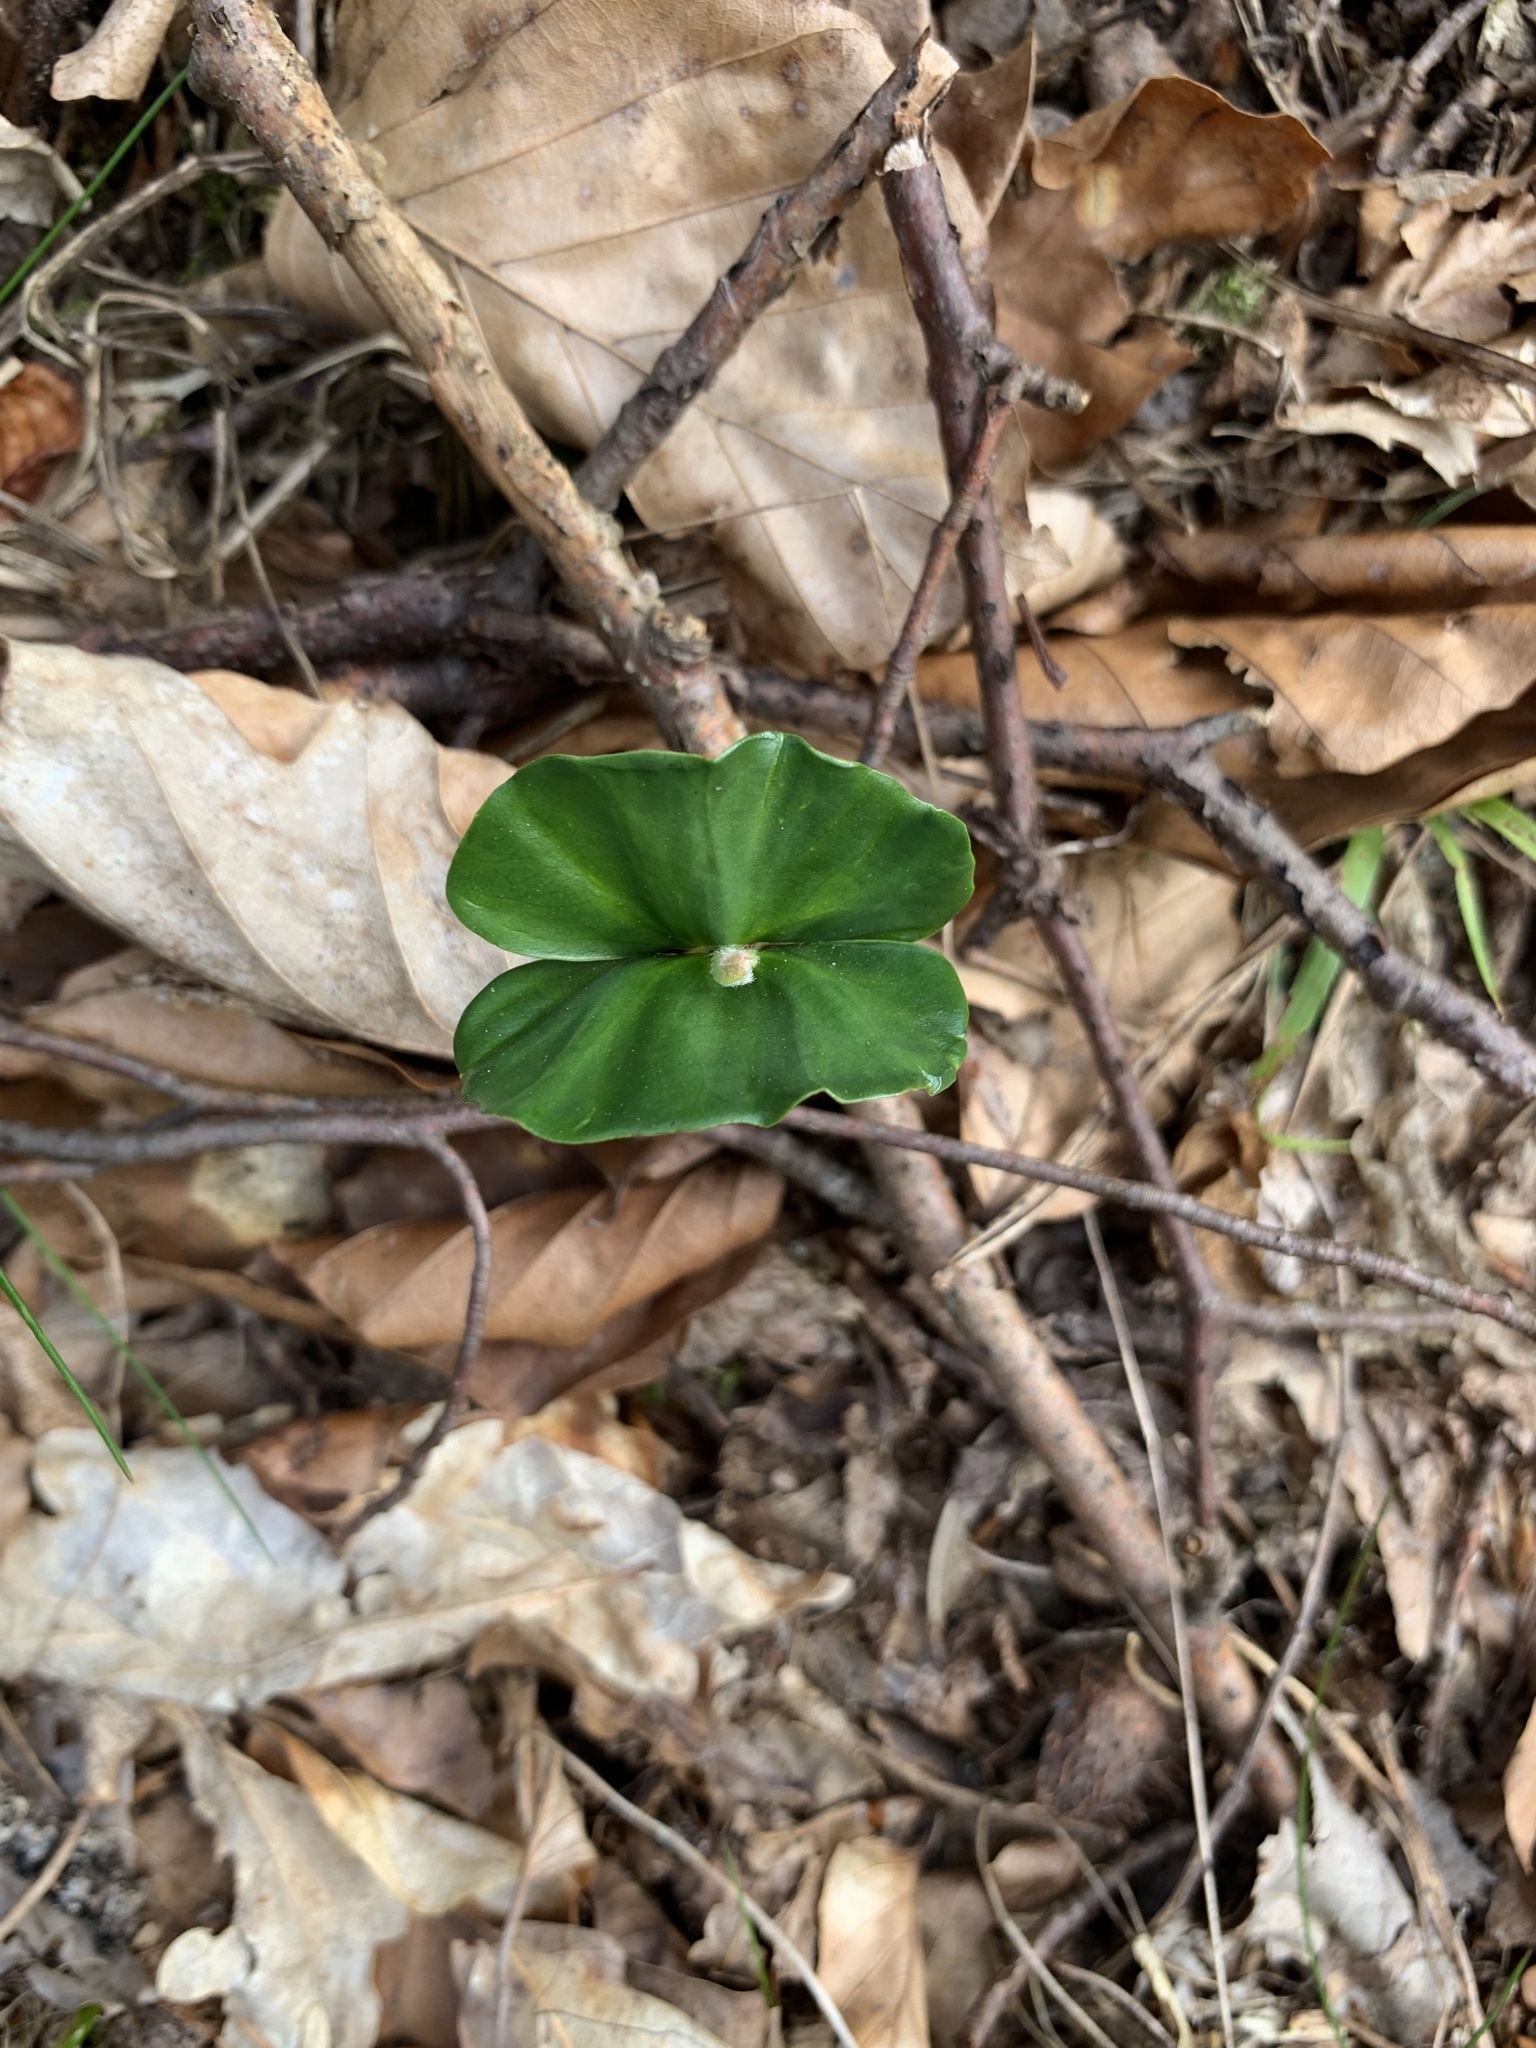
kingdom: Plantae
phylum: Tracheophyta
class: Magnoliopsida
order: Fagales
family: Fagaceae
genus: Fagus
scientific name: Fagus sylvatica
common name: Beech
